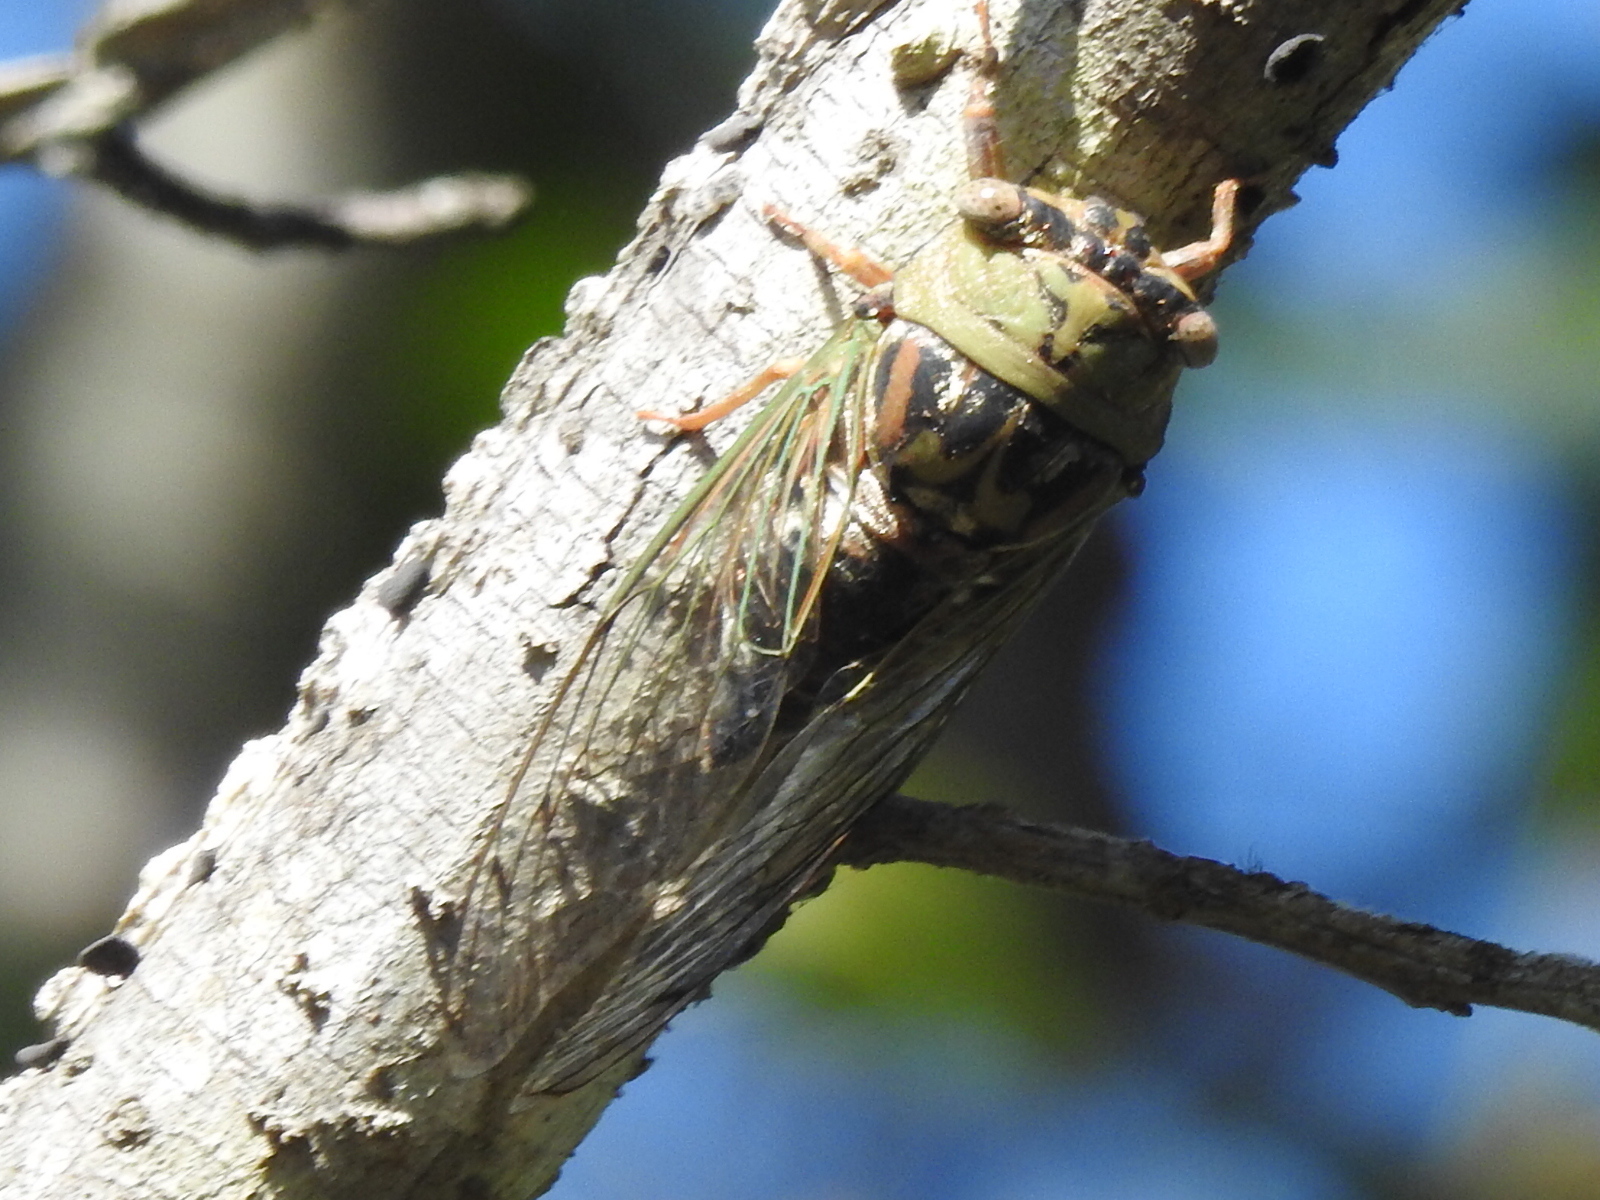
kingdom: Animalia
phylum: Arthropoda
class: Insecta
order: Hemiptera
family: Cicadidae
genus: Megatibicen
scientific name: Megatibicen resh
